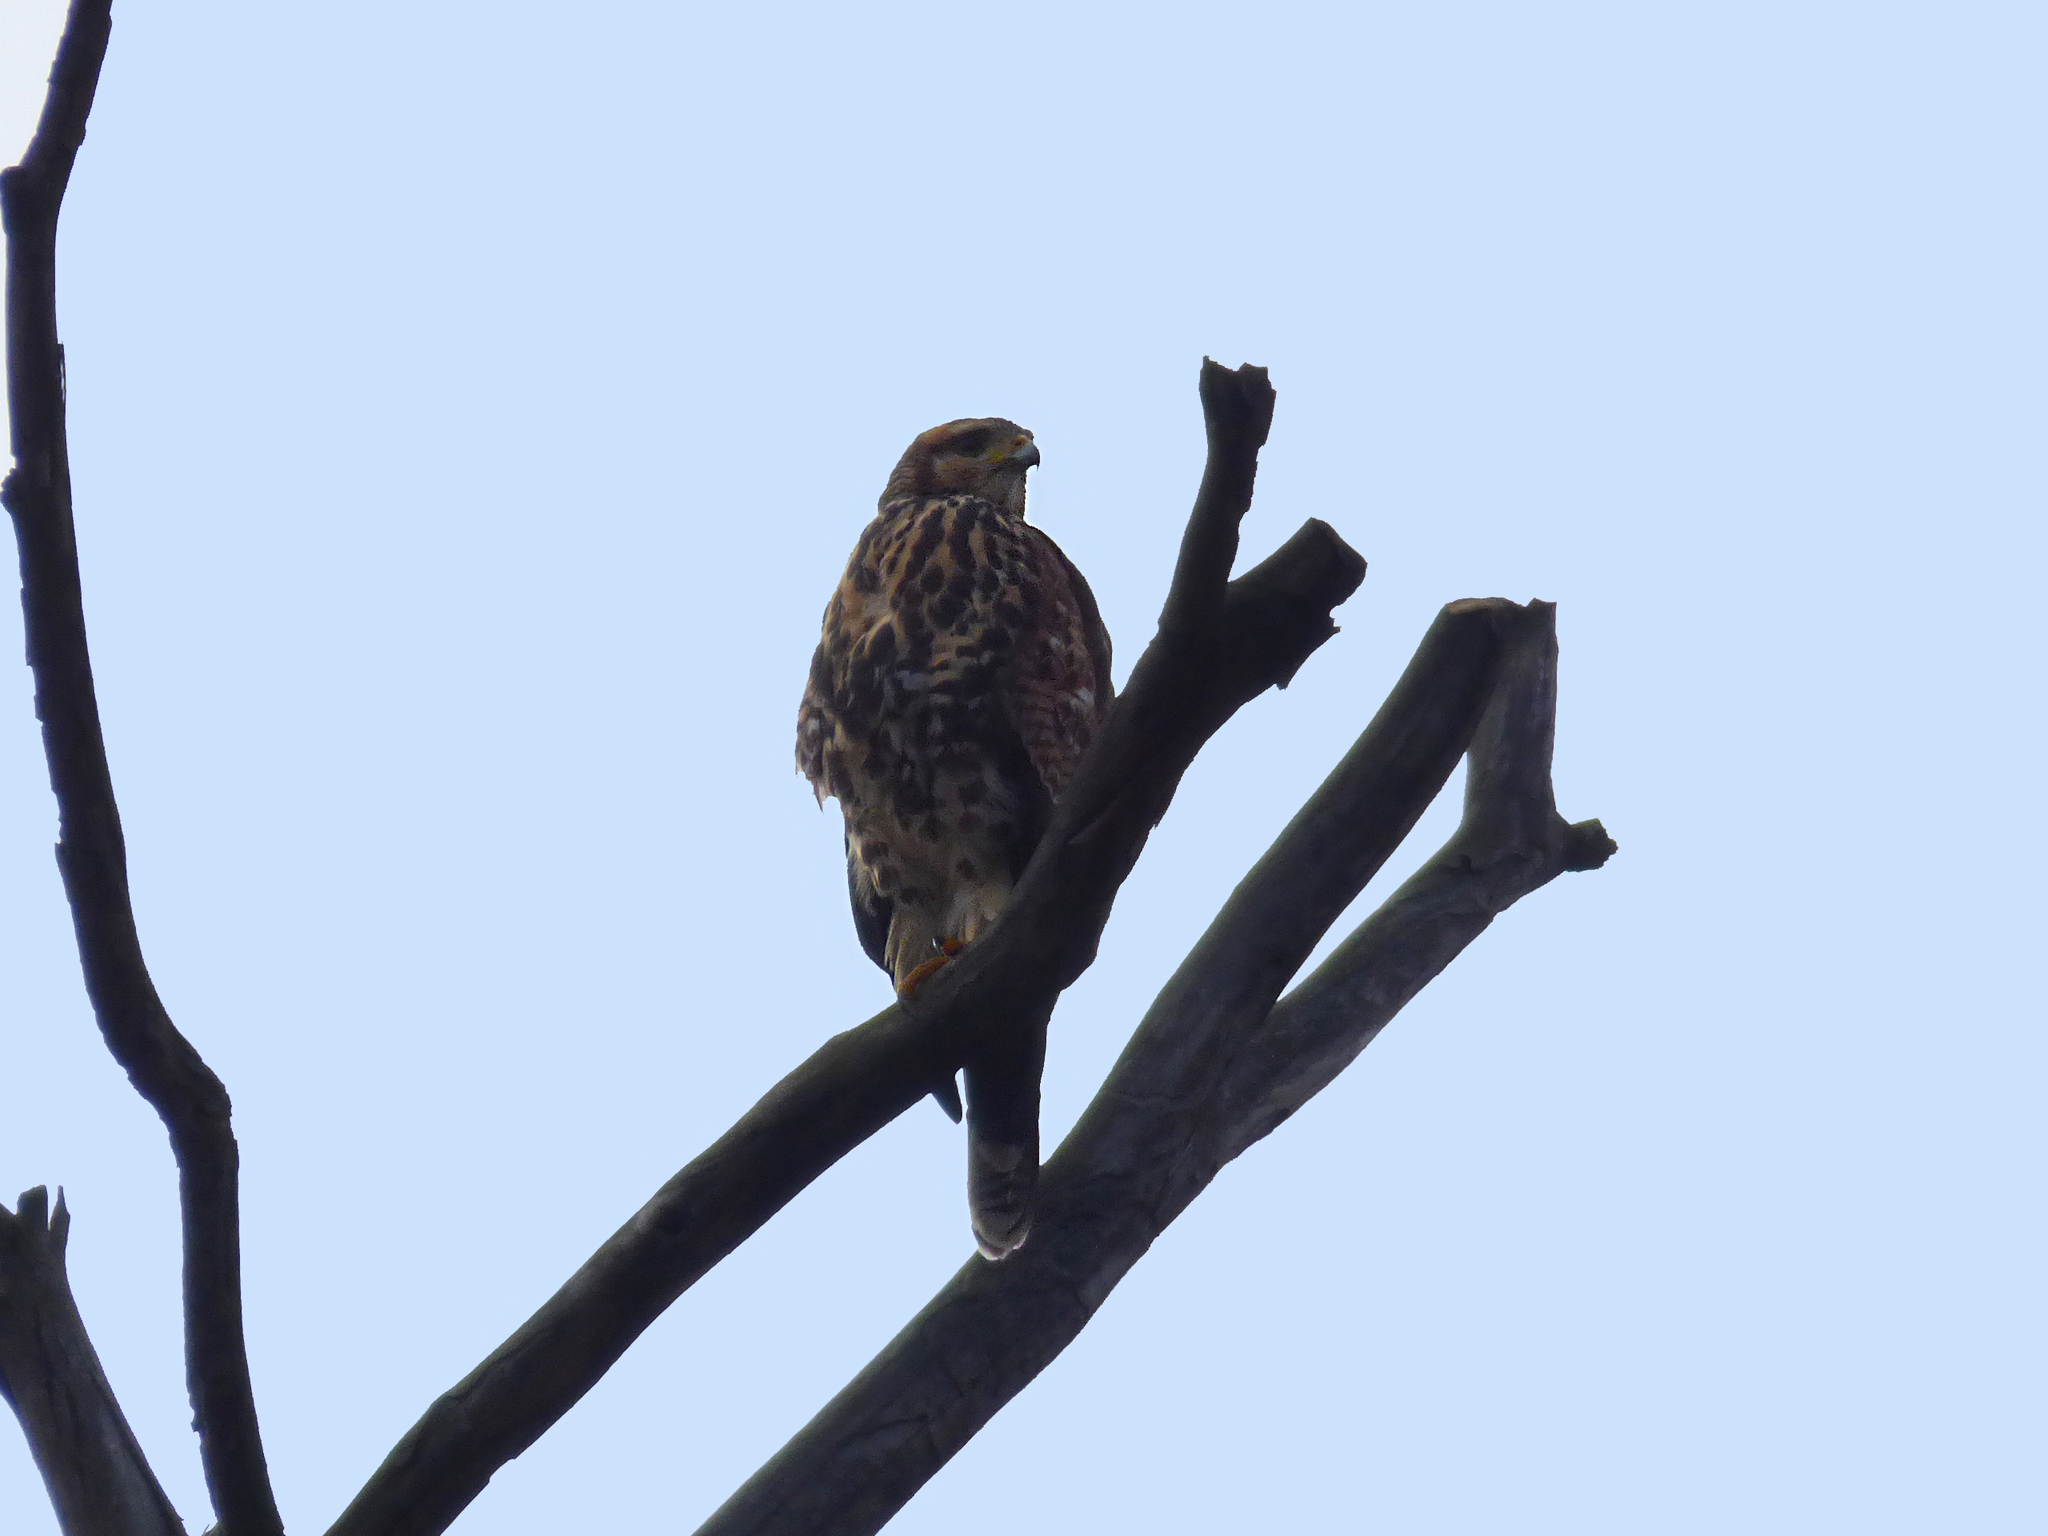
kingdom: Animalia
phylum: Chordata
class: Aves
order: Accipitriformes
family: Accipitridae
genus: Parabuteo
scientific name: Parabuteo unicinctus
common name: Harris's hawk
